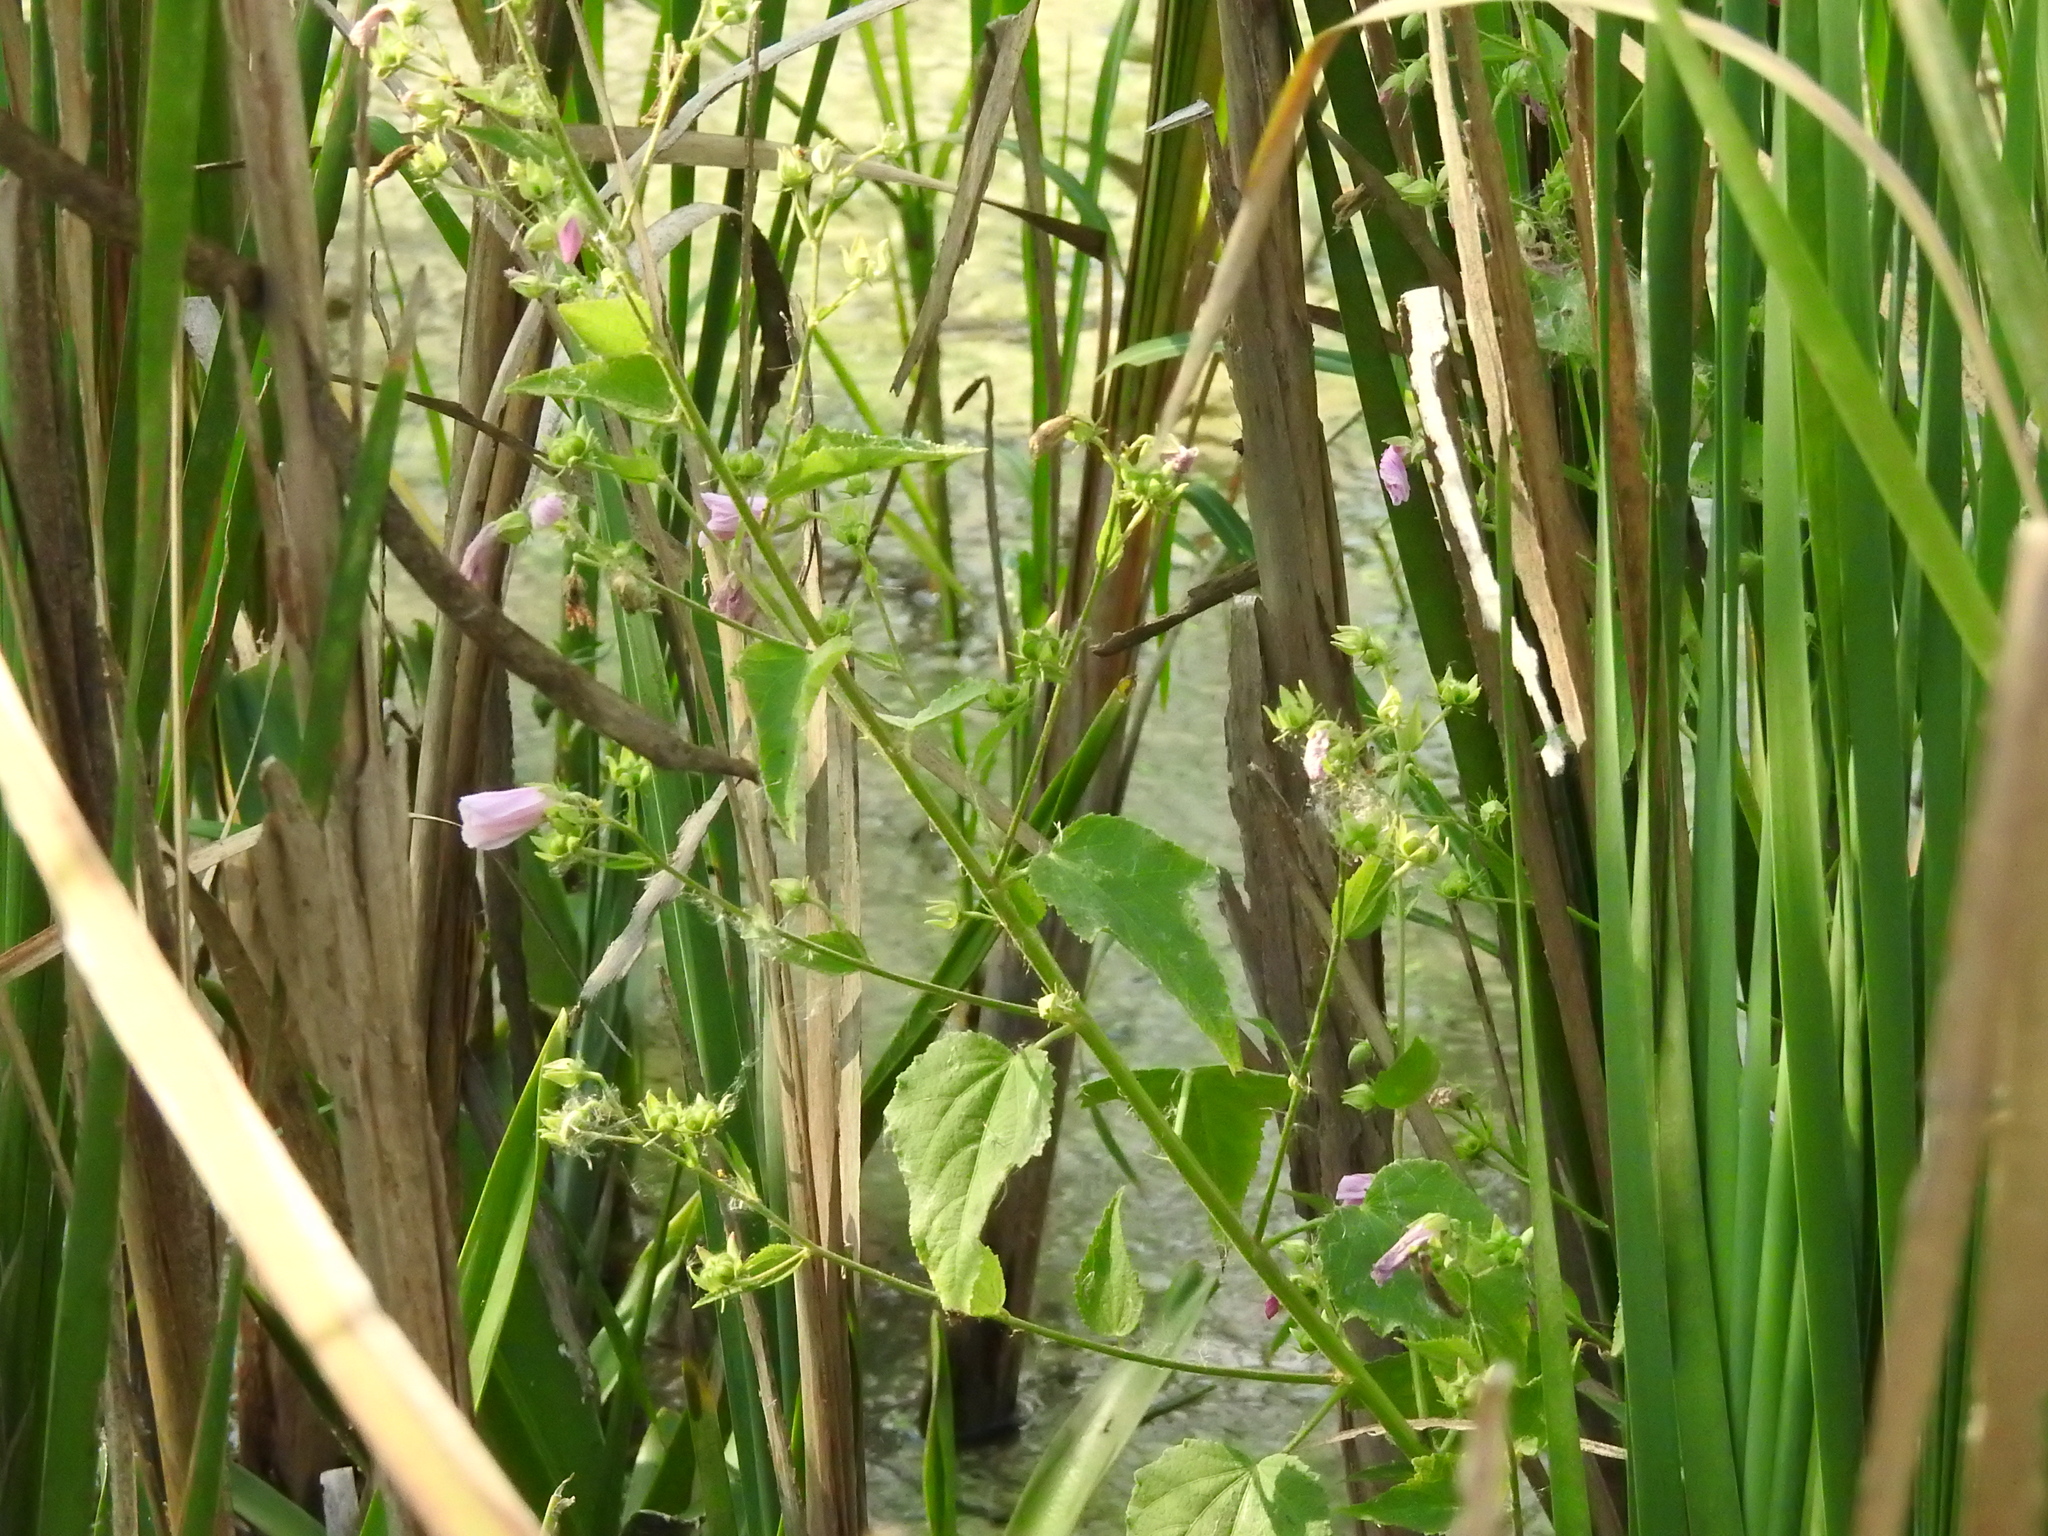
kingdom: Plantae
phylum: Tracheophyta
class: Magnoliopsida
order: Malvales
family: Malvaceae
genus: Kosteletzkya
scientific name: Kosteletzkya pentacarpos
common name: Virginia saltmarsh mallow
